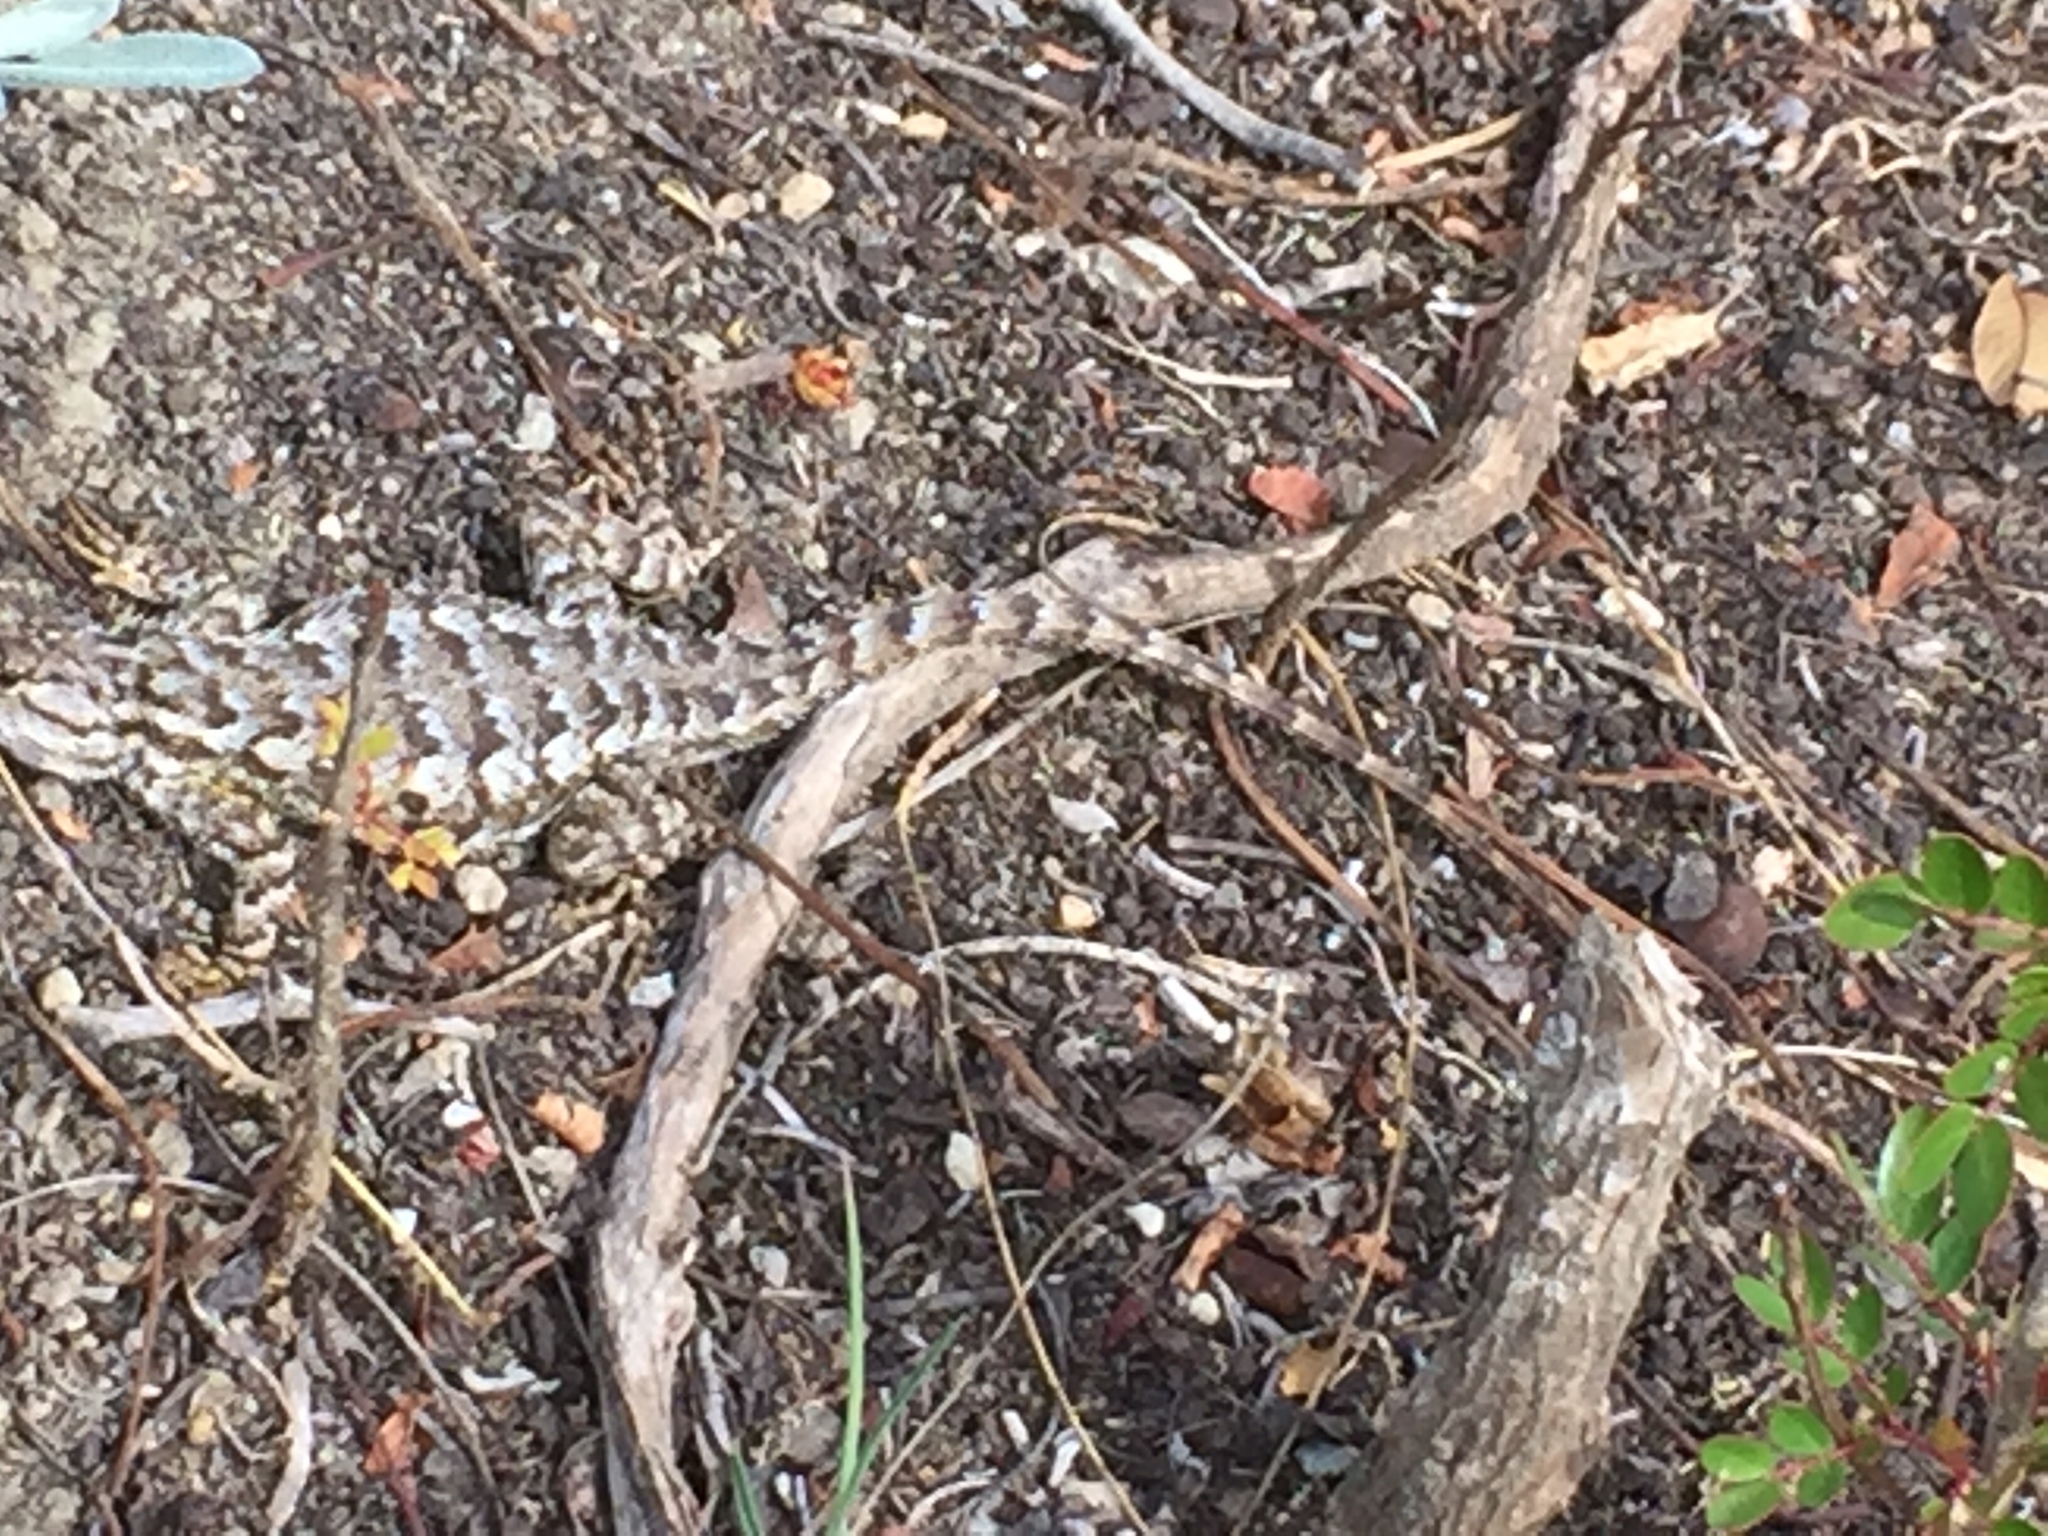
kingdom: Animalia
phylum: Chordata
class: Squamata
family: Phrynosomatidae
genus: Sceloporus
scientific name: Sceloporus occidentalis
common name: Western fence lizard
